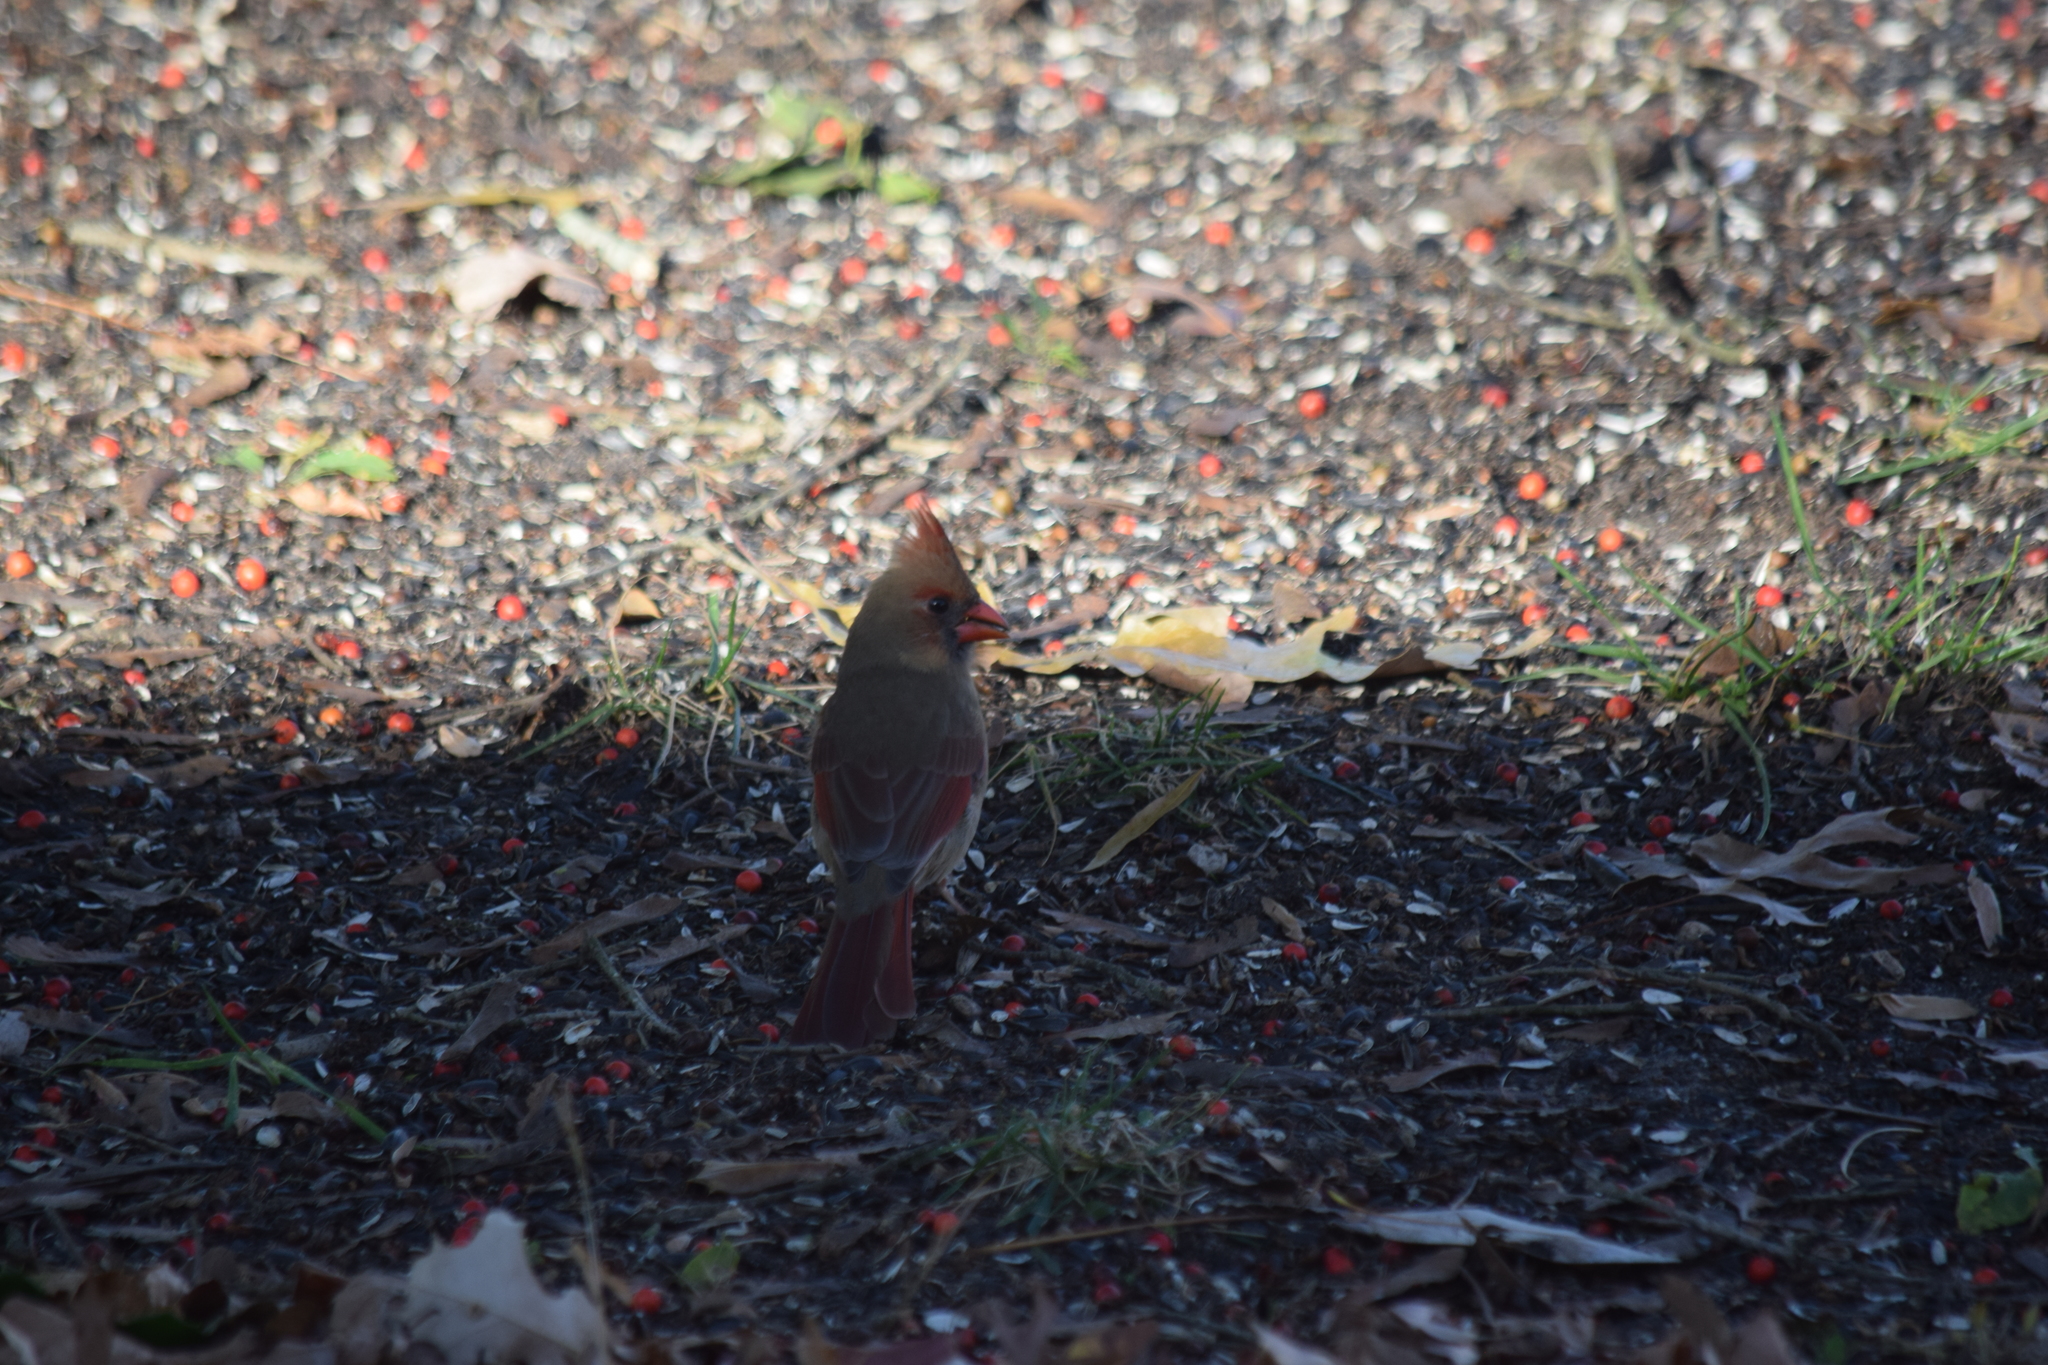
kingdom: Animalia
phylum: Chordata
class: Aves
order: Passeriformes
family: Cardinalidae
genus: Cardinalis
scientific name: Cardinalis cardinalis
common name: Northern cardinal
